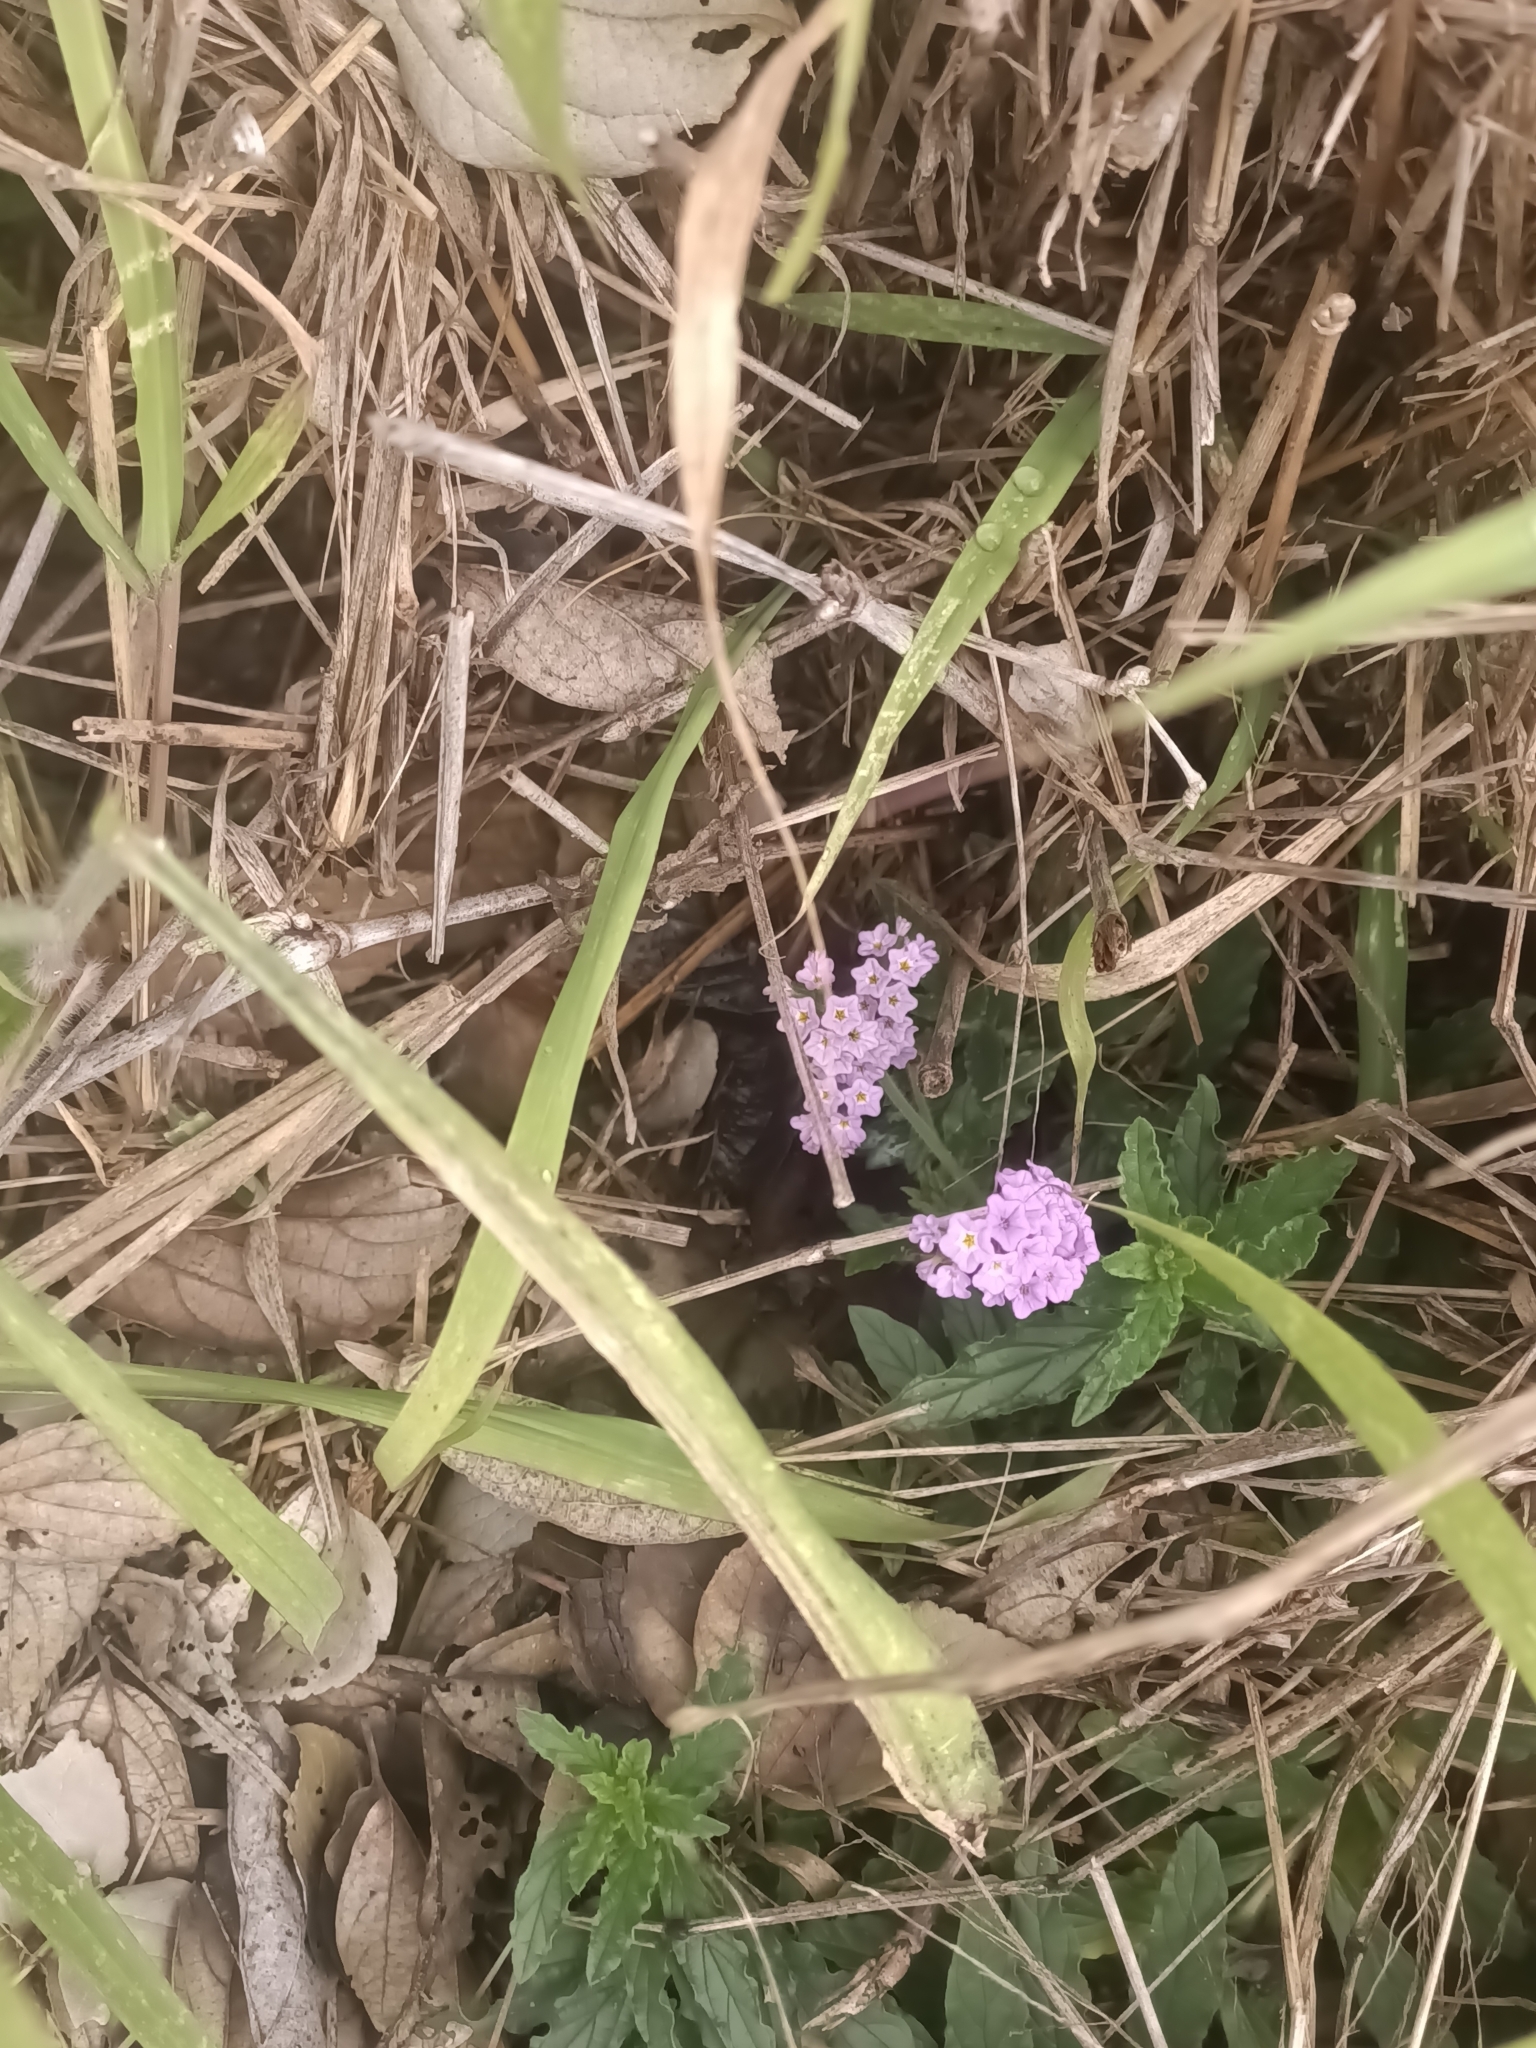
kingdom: Plantae
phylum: Tracheophyta
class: Magnoliopsida
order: Boraginales
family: Heliotropiaceae
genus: Heliotropium
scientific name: Heliotropium amplexicaule
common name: Clasping heliotrope
